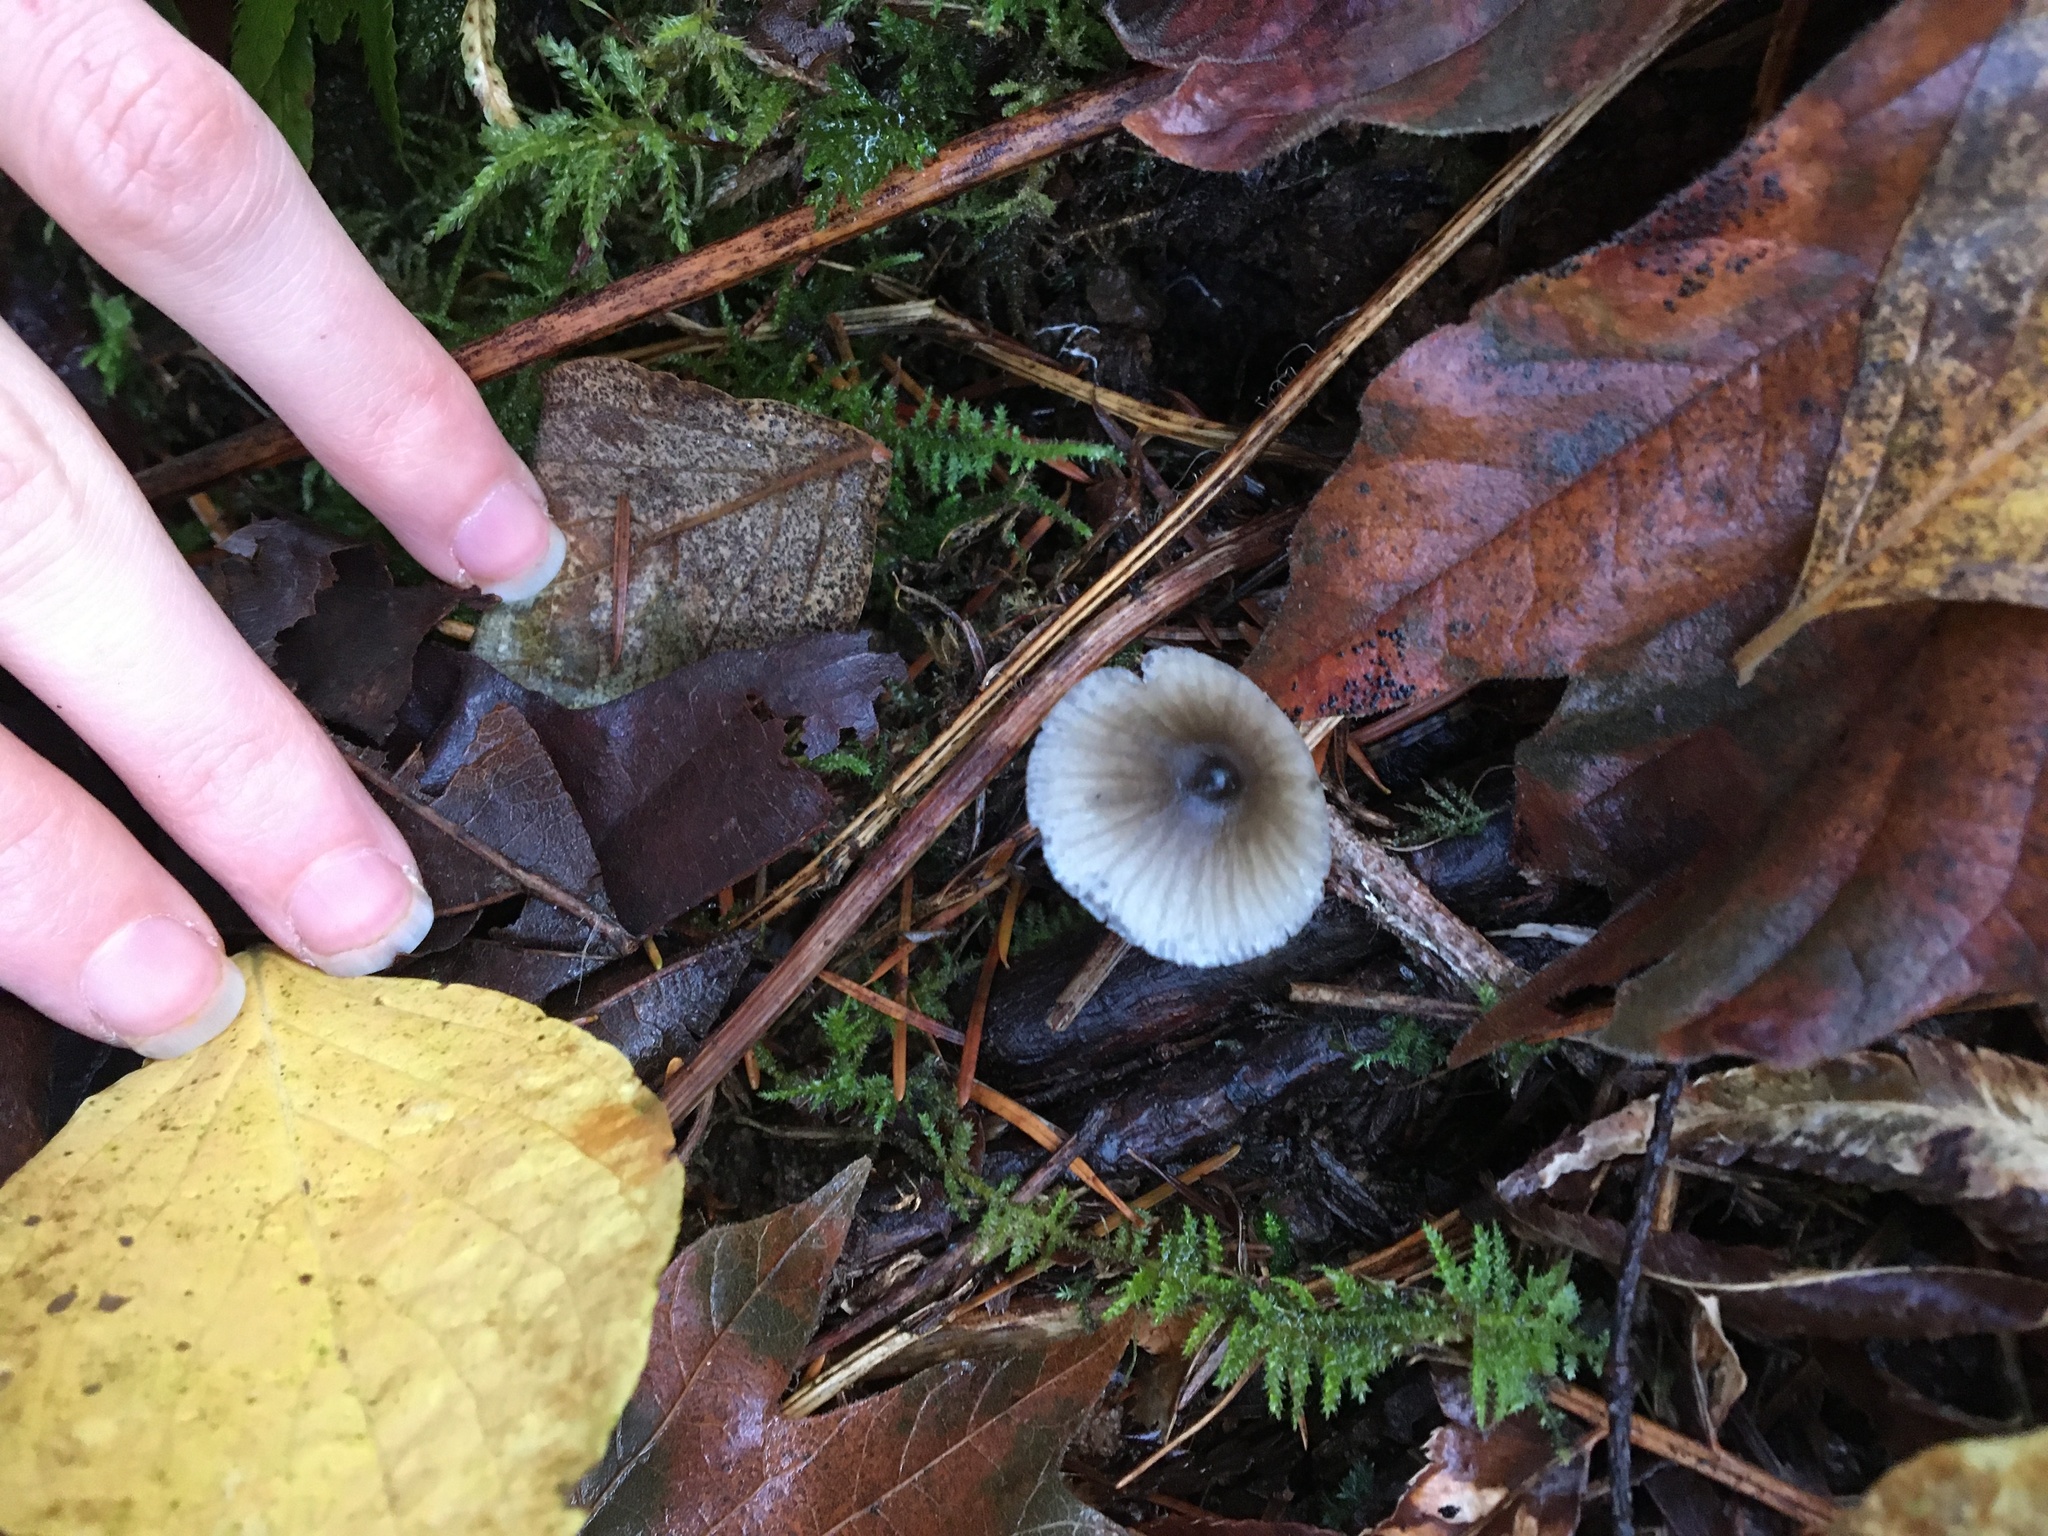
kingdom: Fungi
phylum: Basidiomycota
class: Agaricomycetes
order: Agaricales
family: Mycenaceae
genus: Mycena
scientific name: Mycena amicta
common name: Coldfoot bonnet
